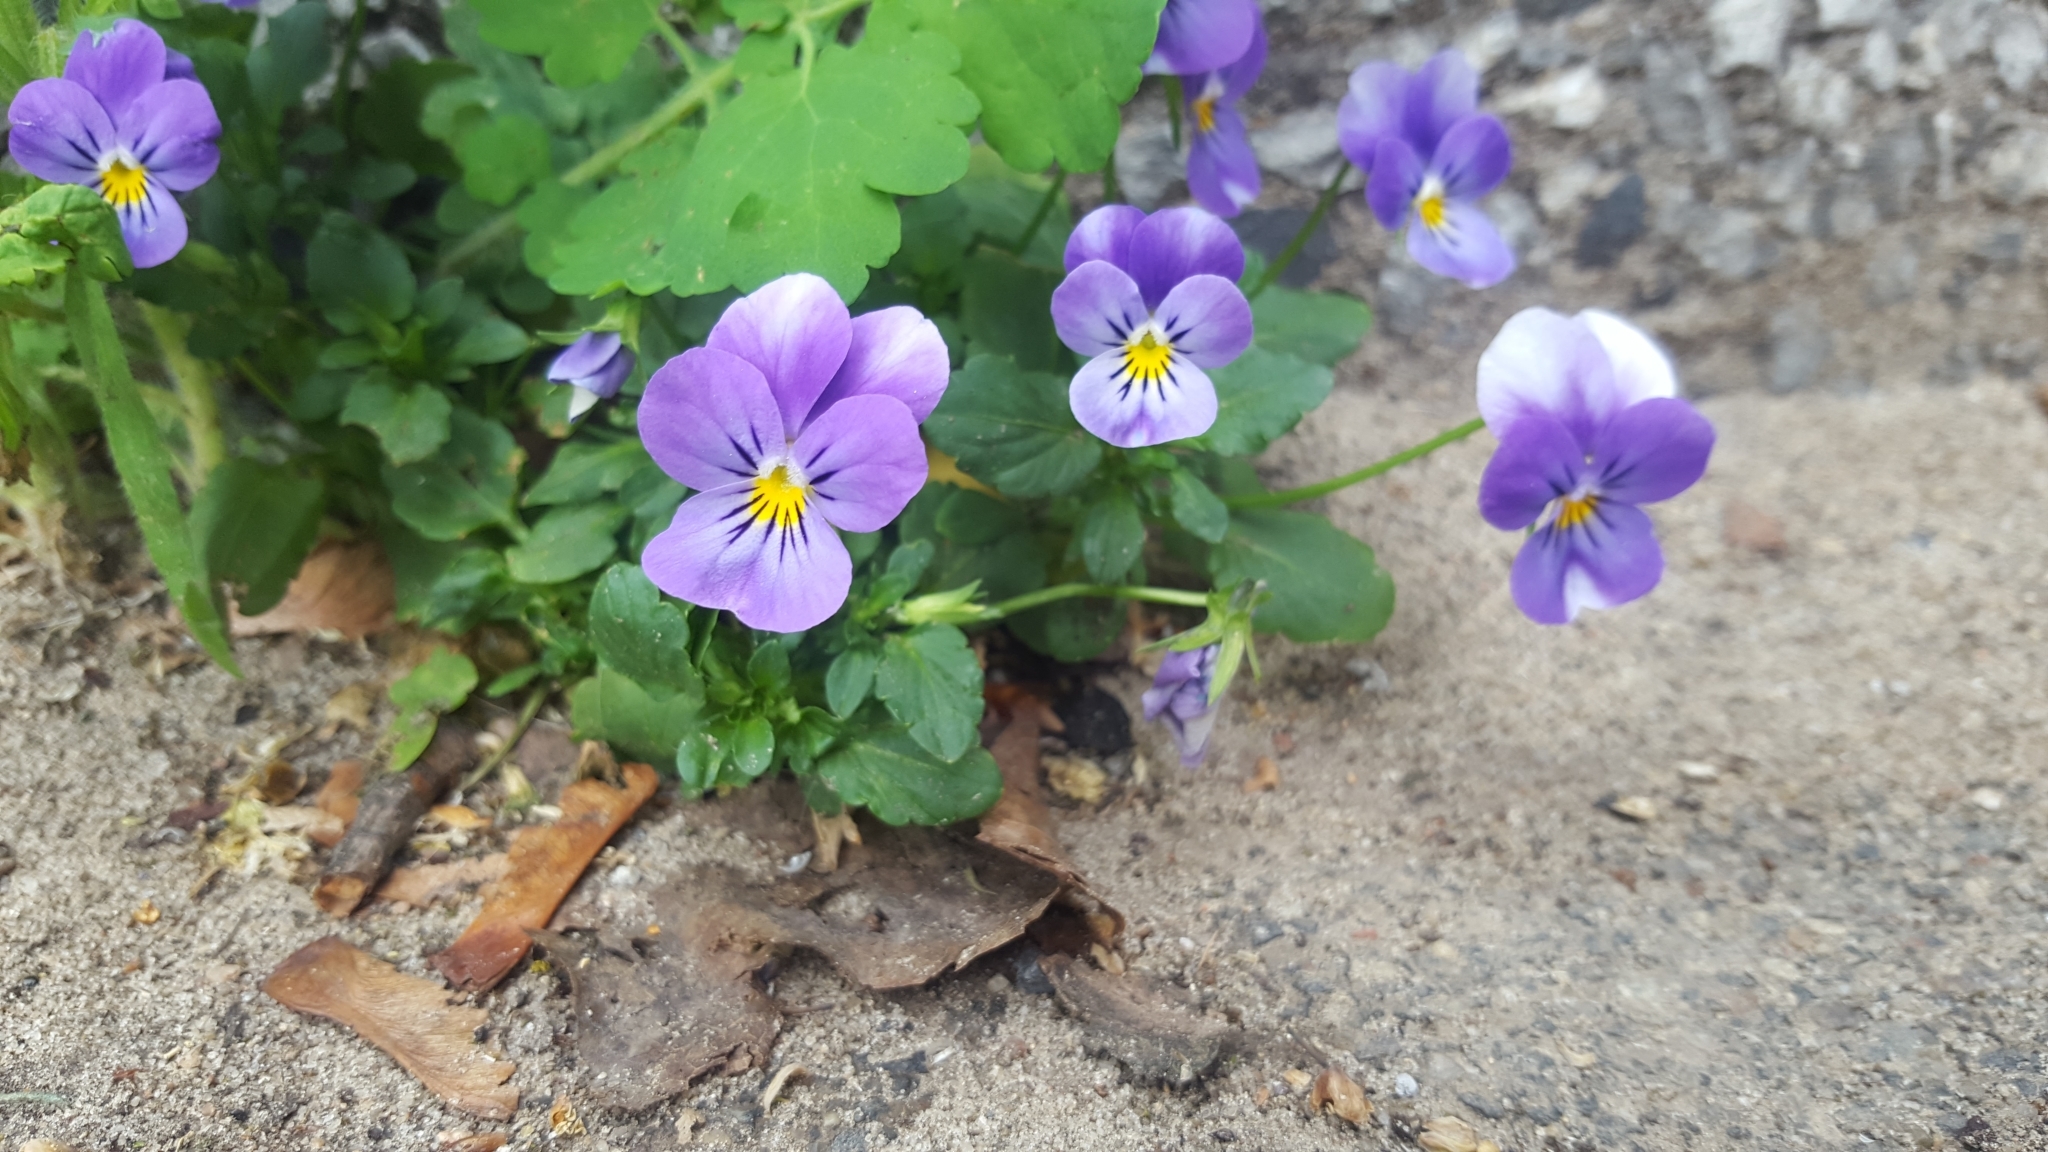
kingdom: Plantae
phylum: Tracheophyta
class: Magnoliopsida
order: Malpighiales
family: Violaceae
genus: Viola
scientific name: Viola wittrockiana
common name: Garden pansy
